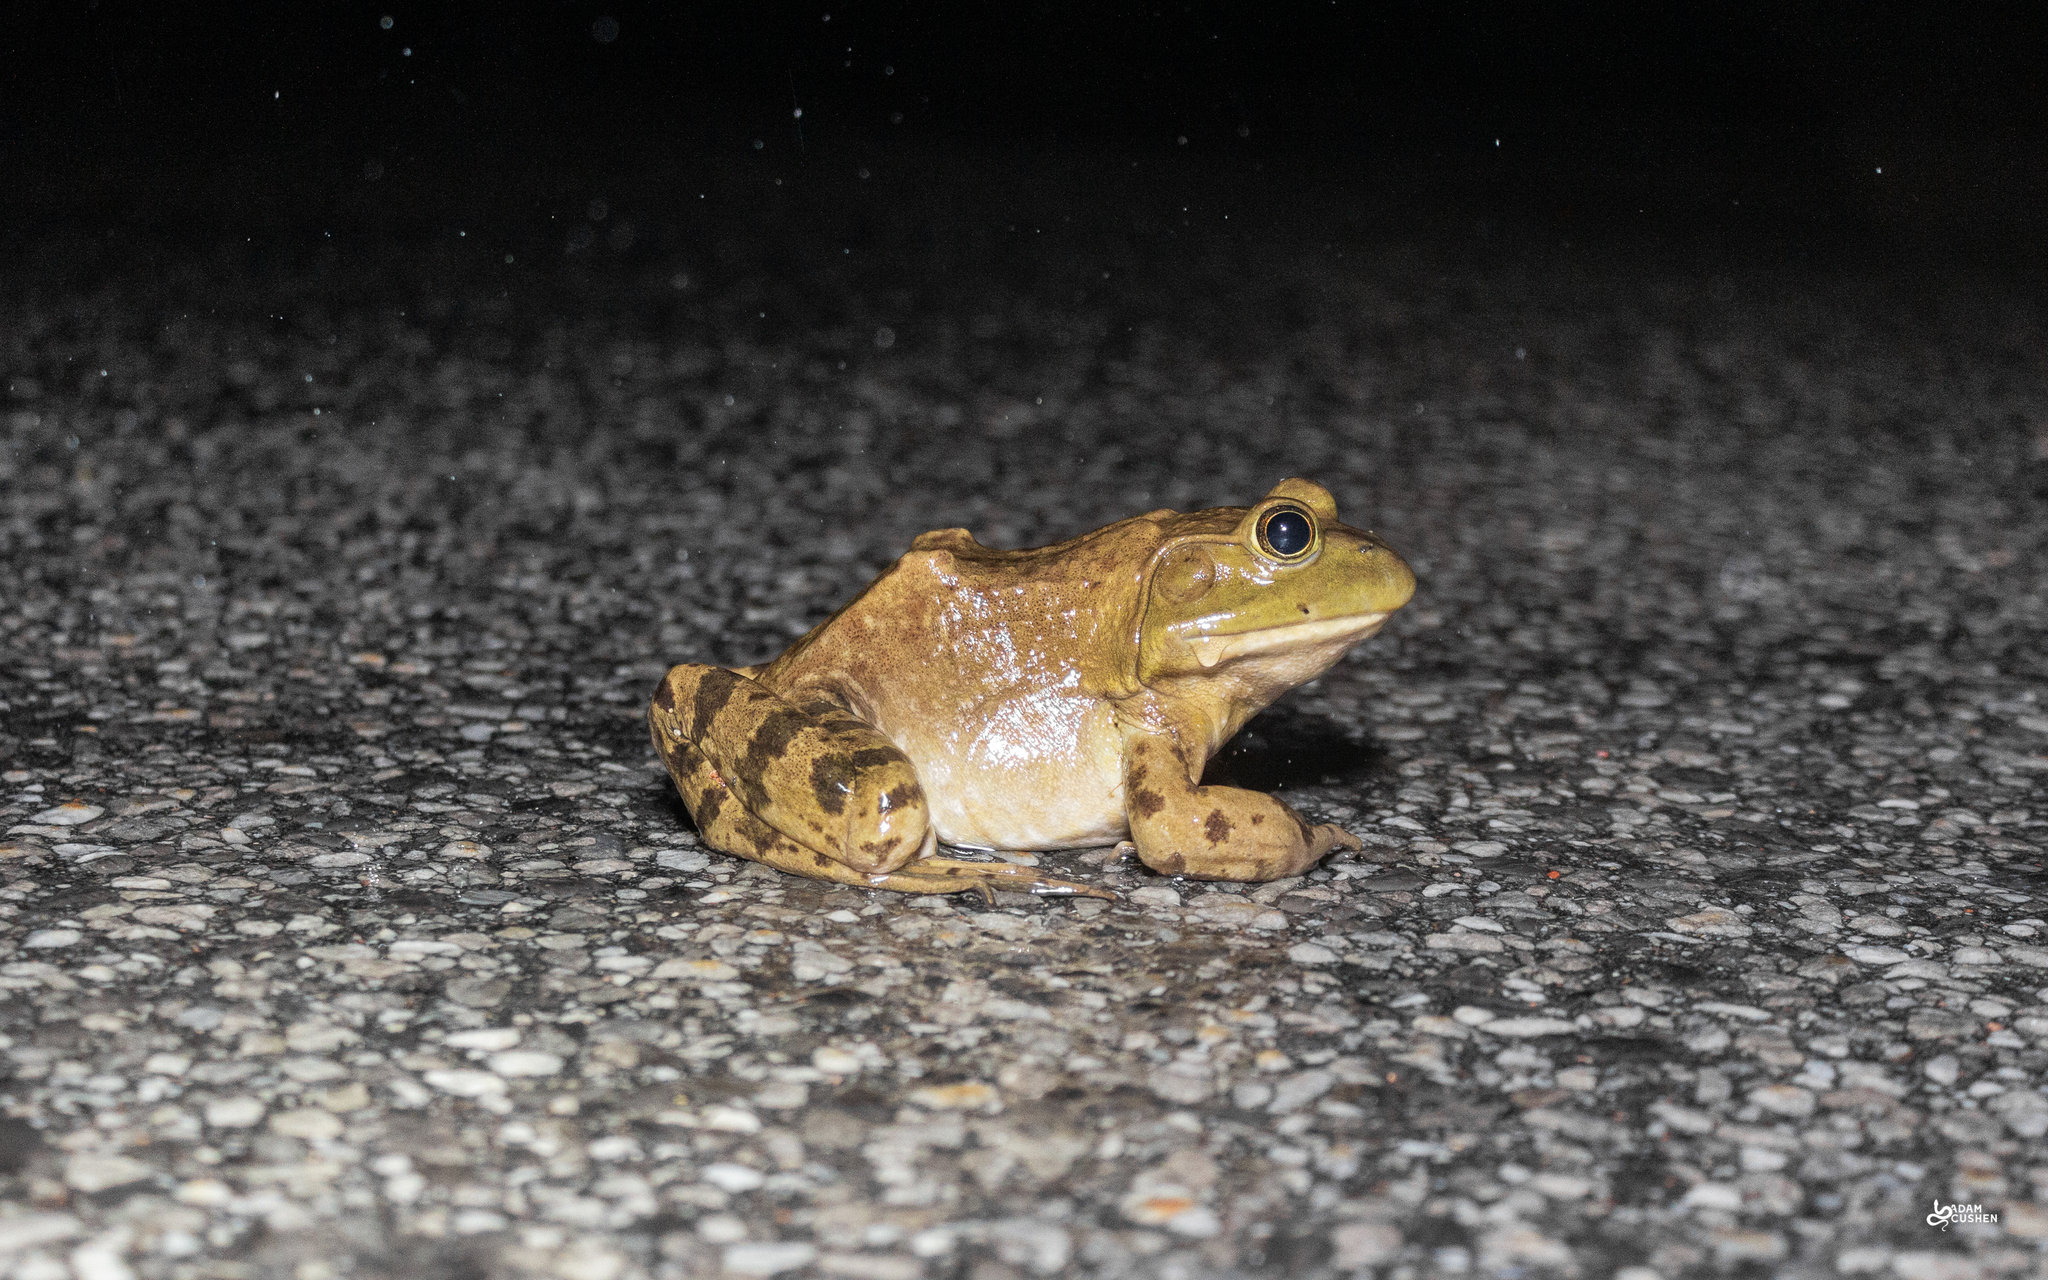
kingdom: Animalia
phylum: Chordata
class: Amphibia
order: Anura
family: Ranidae
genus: Lithobates
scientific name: Lithobates catesbeianus
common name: American bullfrog
